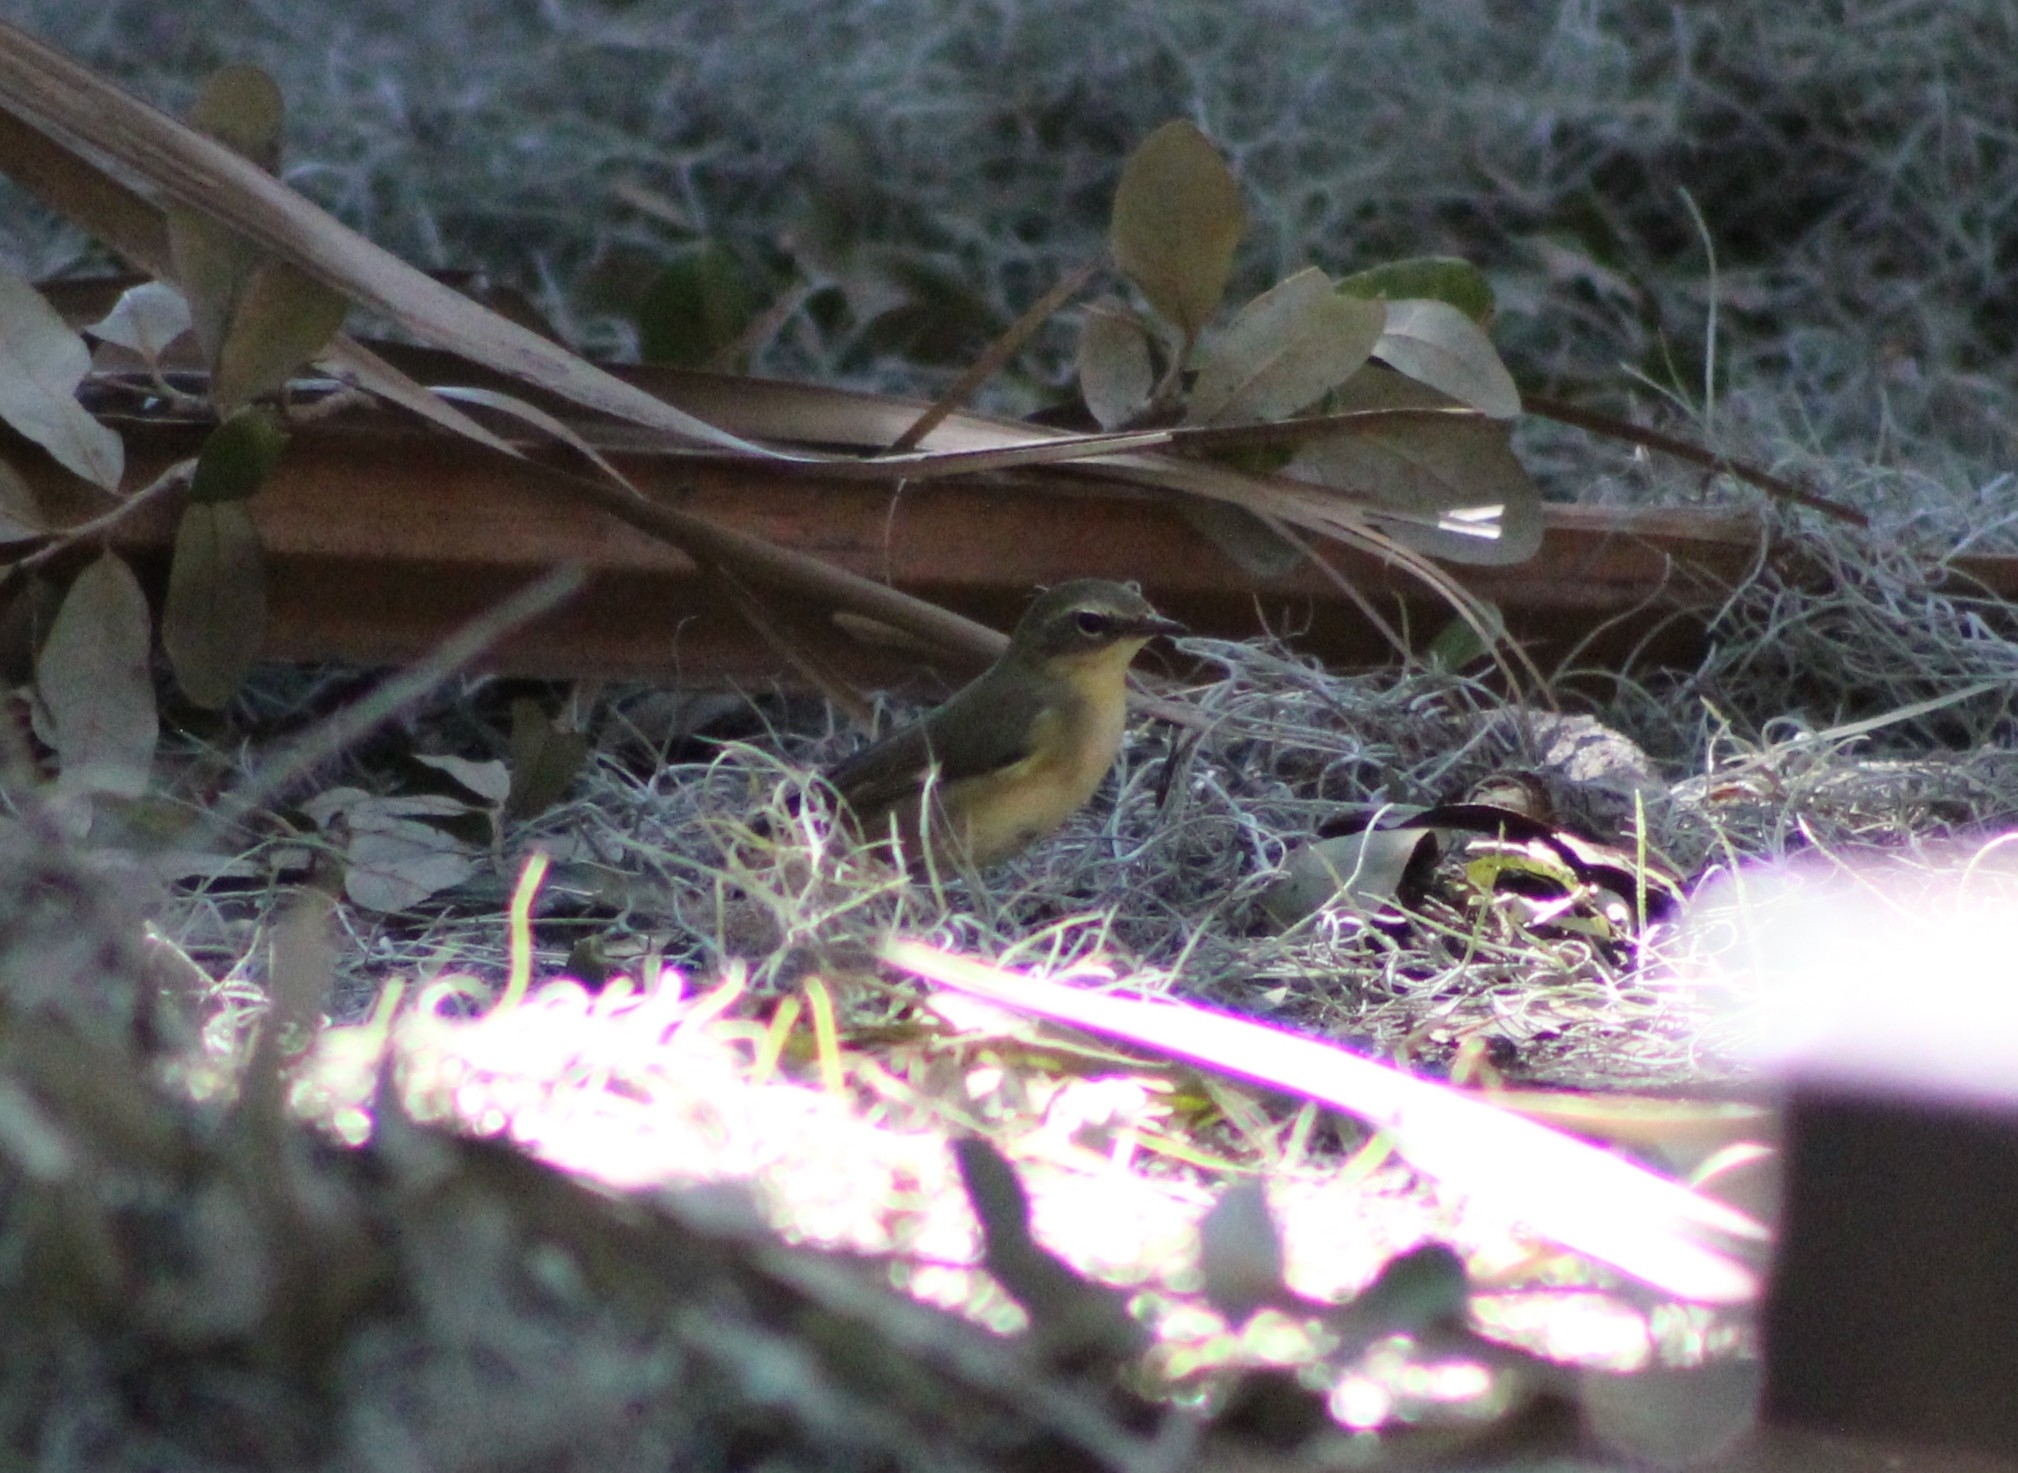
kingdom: Animalia
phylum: Chordata
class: Aves
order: Passeriformes
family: Parulidae
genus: Setophaga
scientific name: Setophaga caerulescens
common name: Black-throated blue warbler
